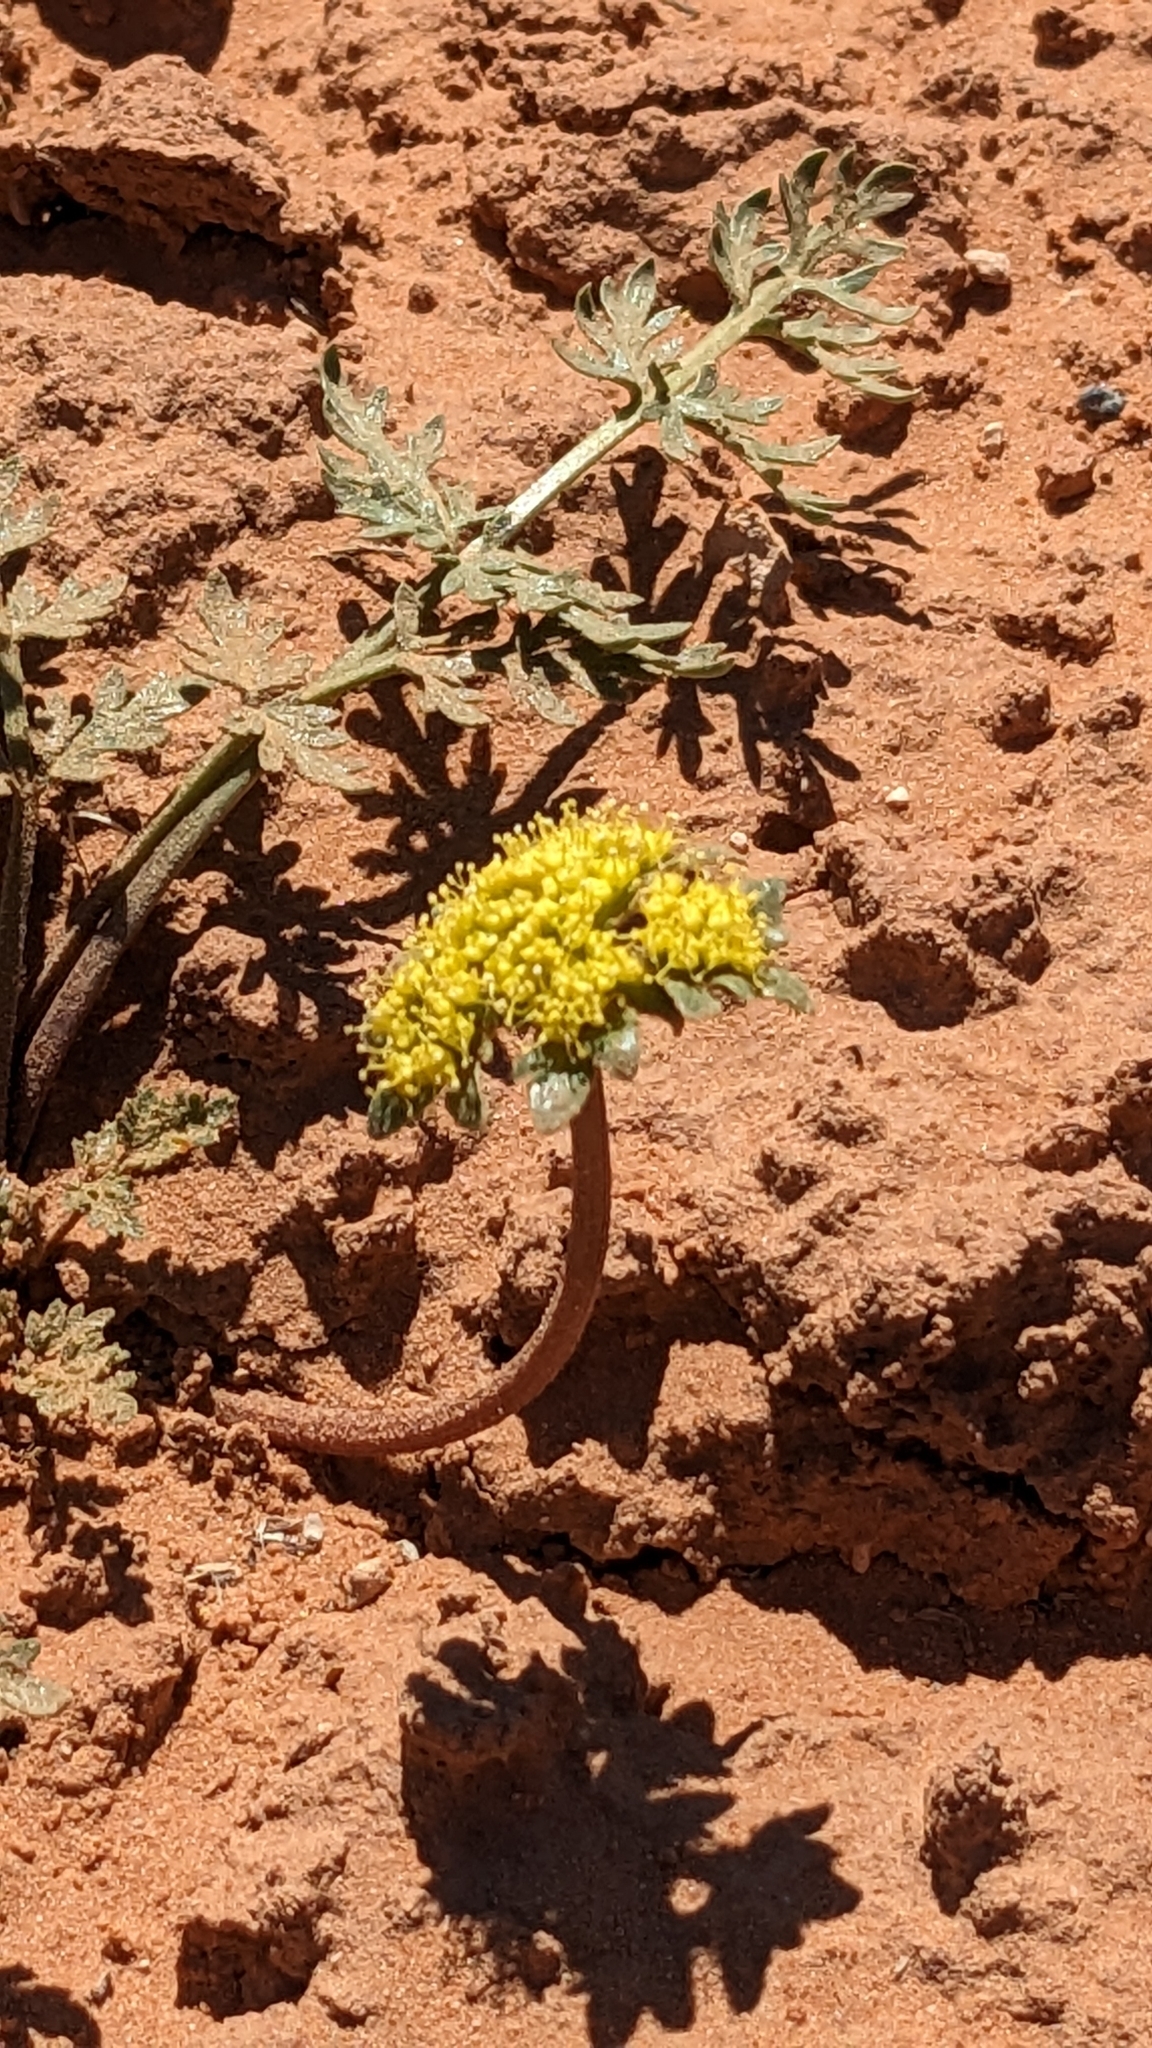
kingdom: Plantae
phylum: Tracheophyta
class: Magnoliopsida
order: Apiales
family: Apiaceae
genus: Cymopterus
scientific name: Cymopterus glomeratus
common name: Plains spring parsley
